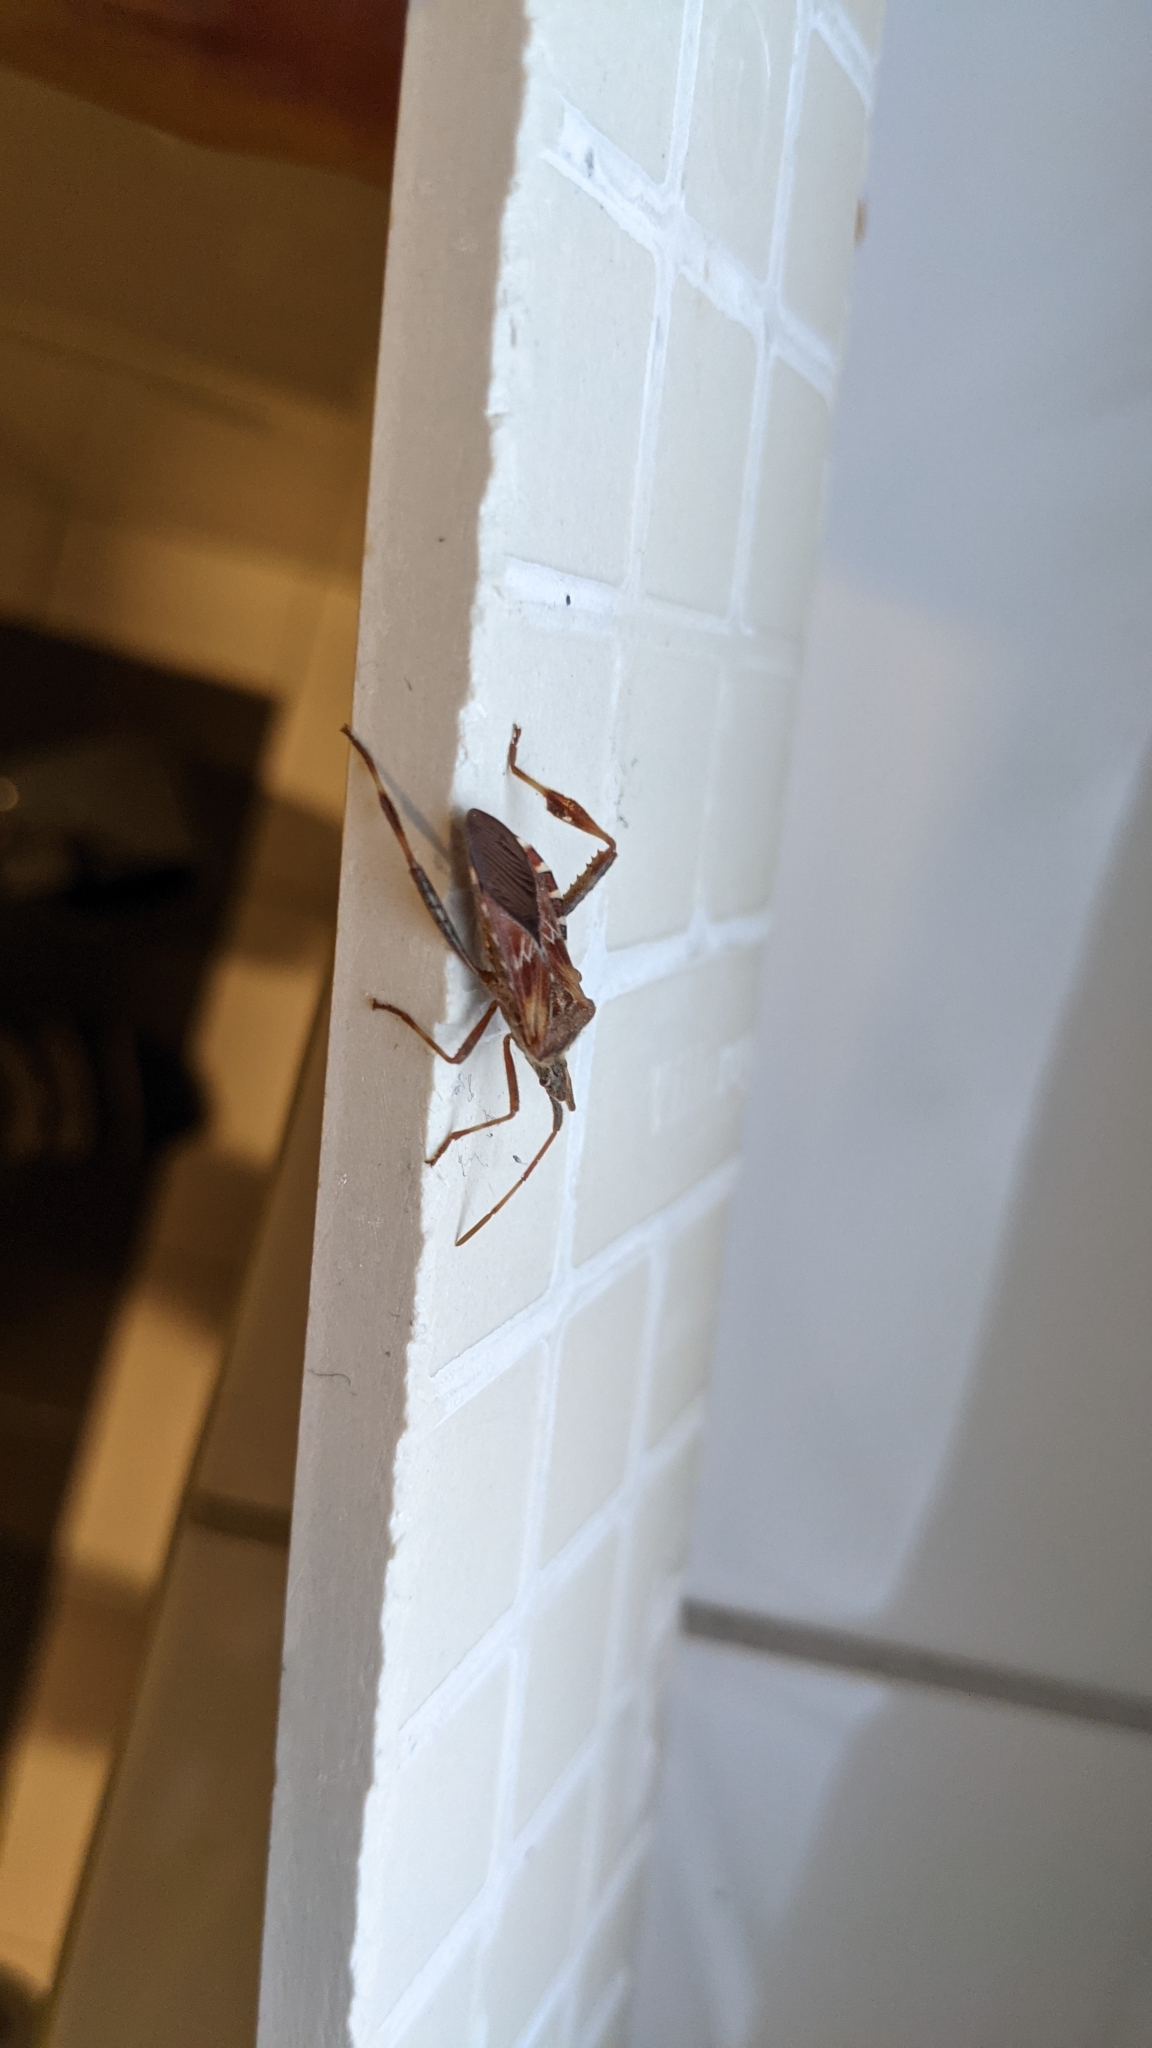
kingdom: Animalia
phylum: Arthropoda
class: Insecta
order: Hemiptera
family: Coreidae
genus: Leptoglossus
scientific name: Leptoglossus occidentalis
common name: Western conifer-seed bug
